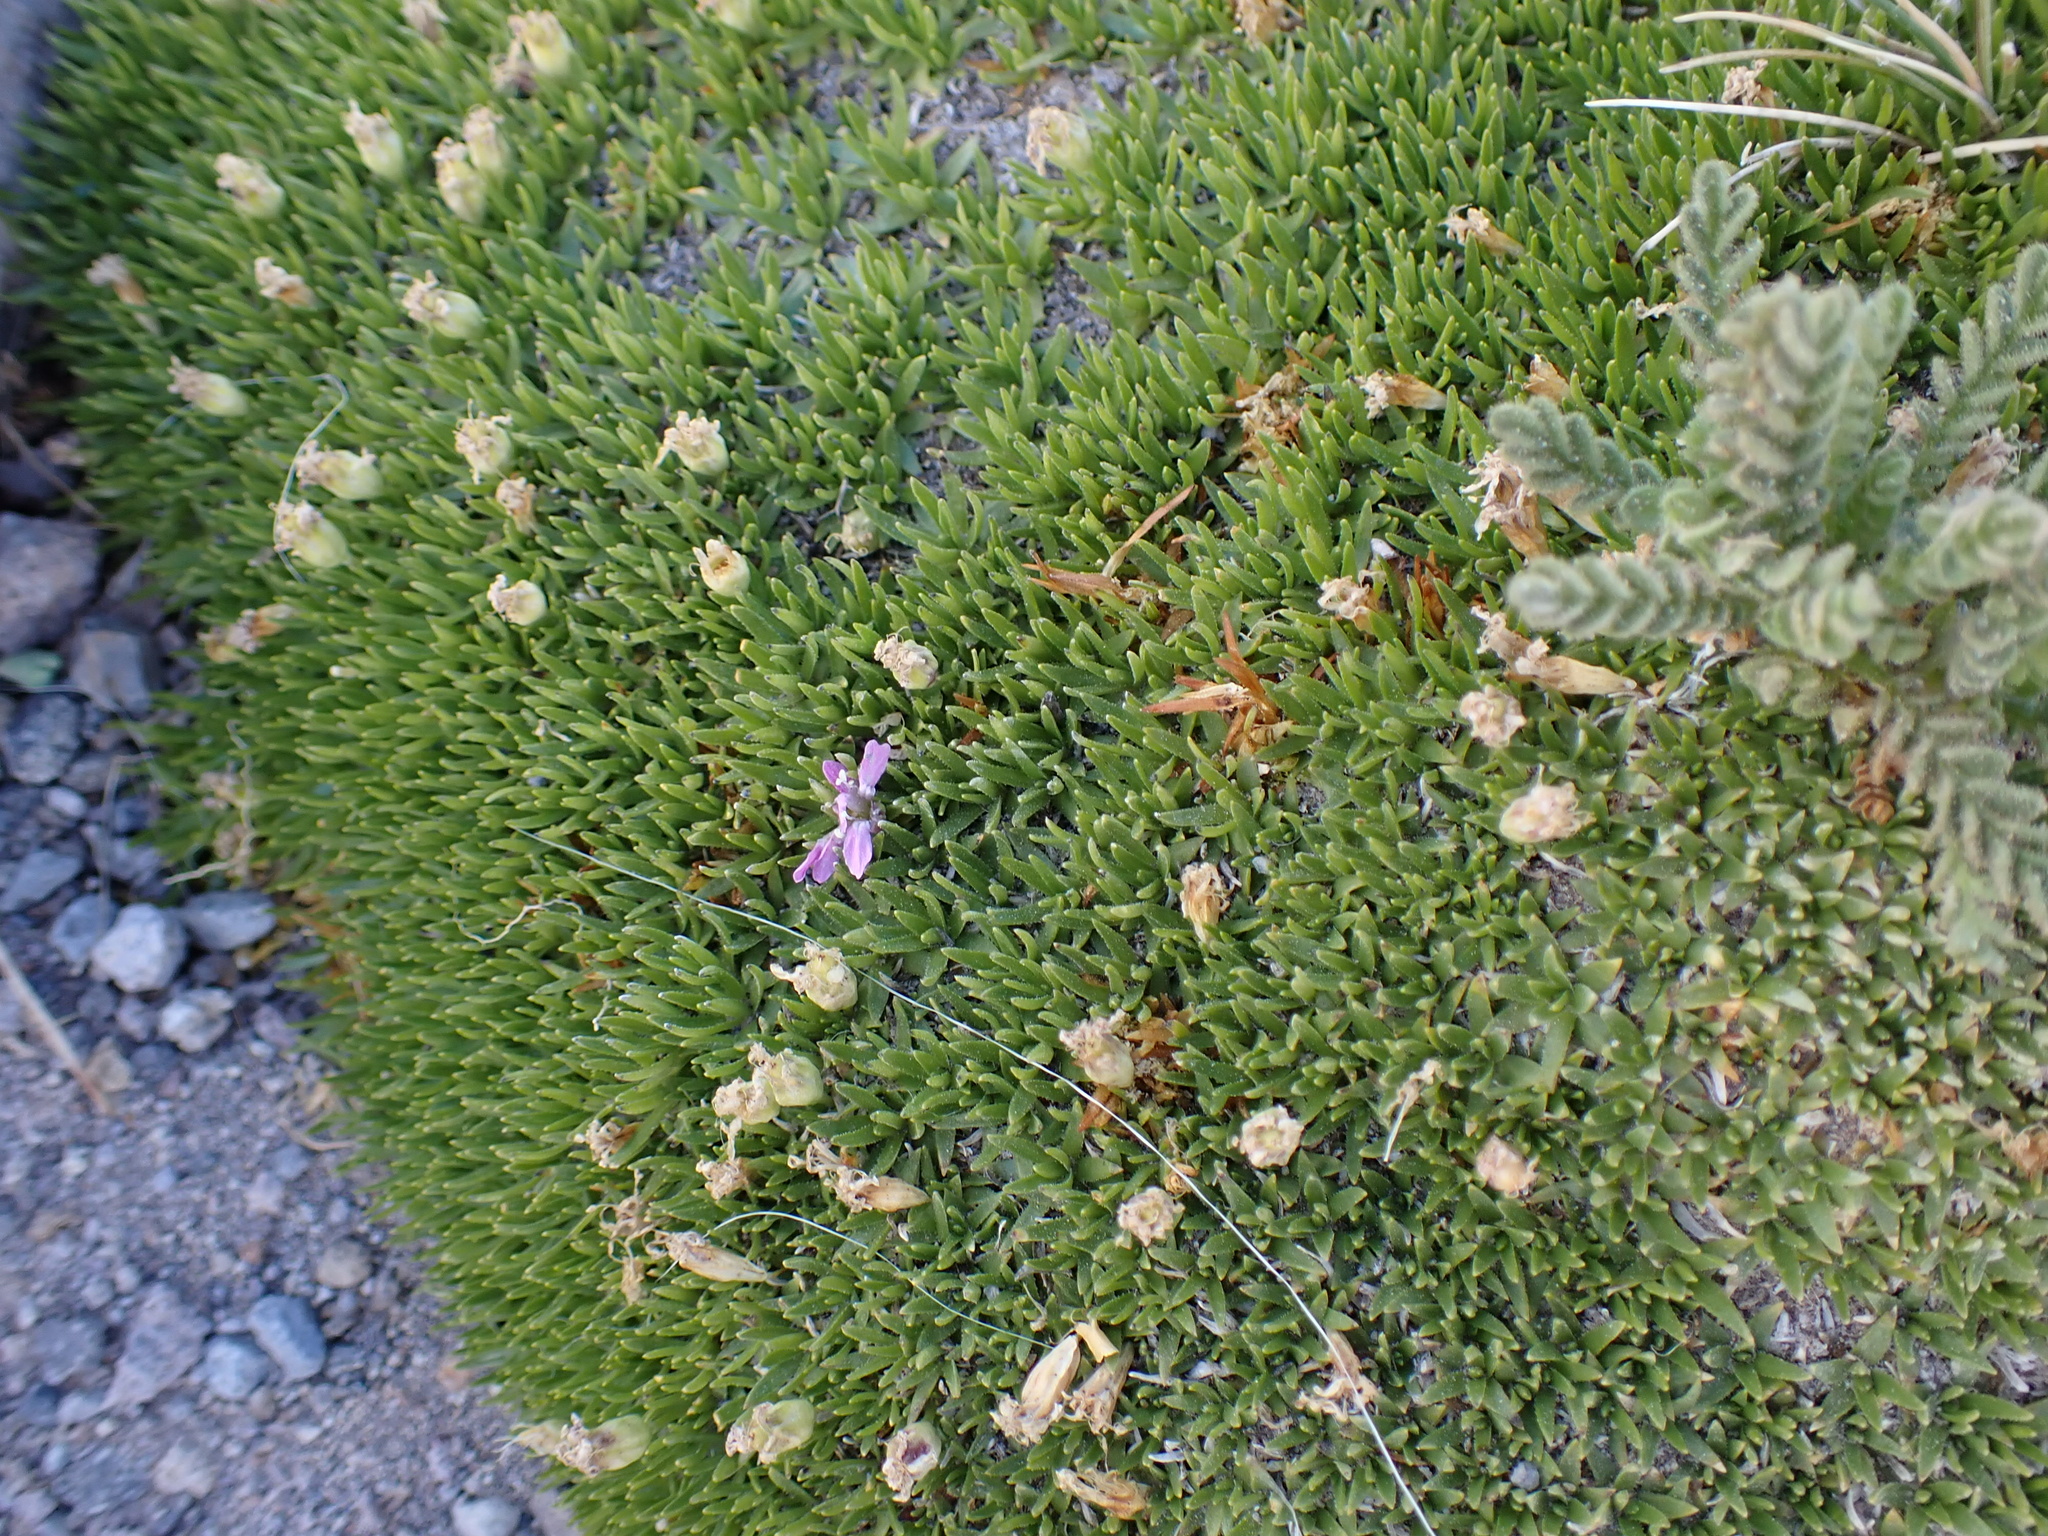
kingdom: Plantae
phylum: Tracheophyta
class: Magnoliopsida
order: Caryophyllales
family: Caryophyllaceae
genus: Silene
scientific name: Silene acaulis
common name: Moss campion
